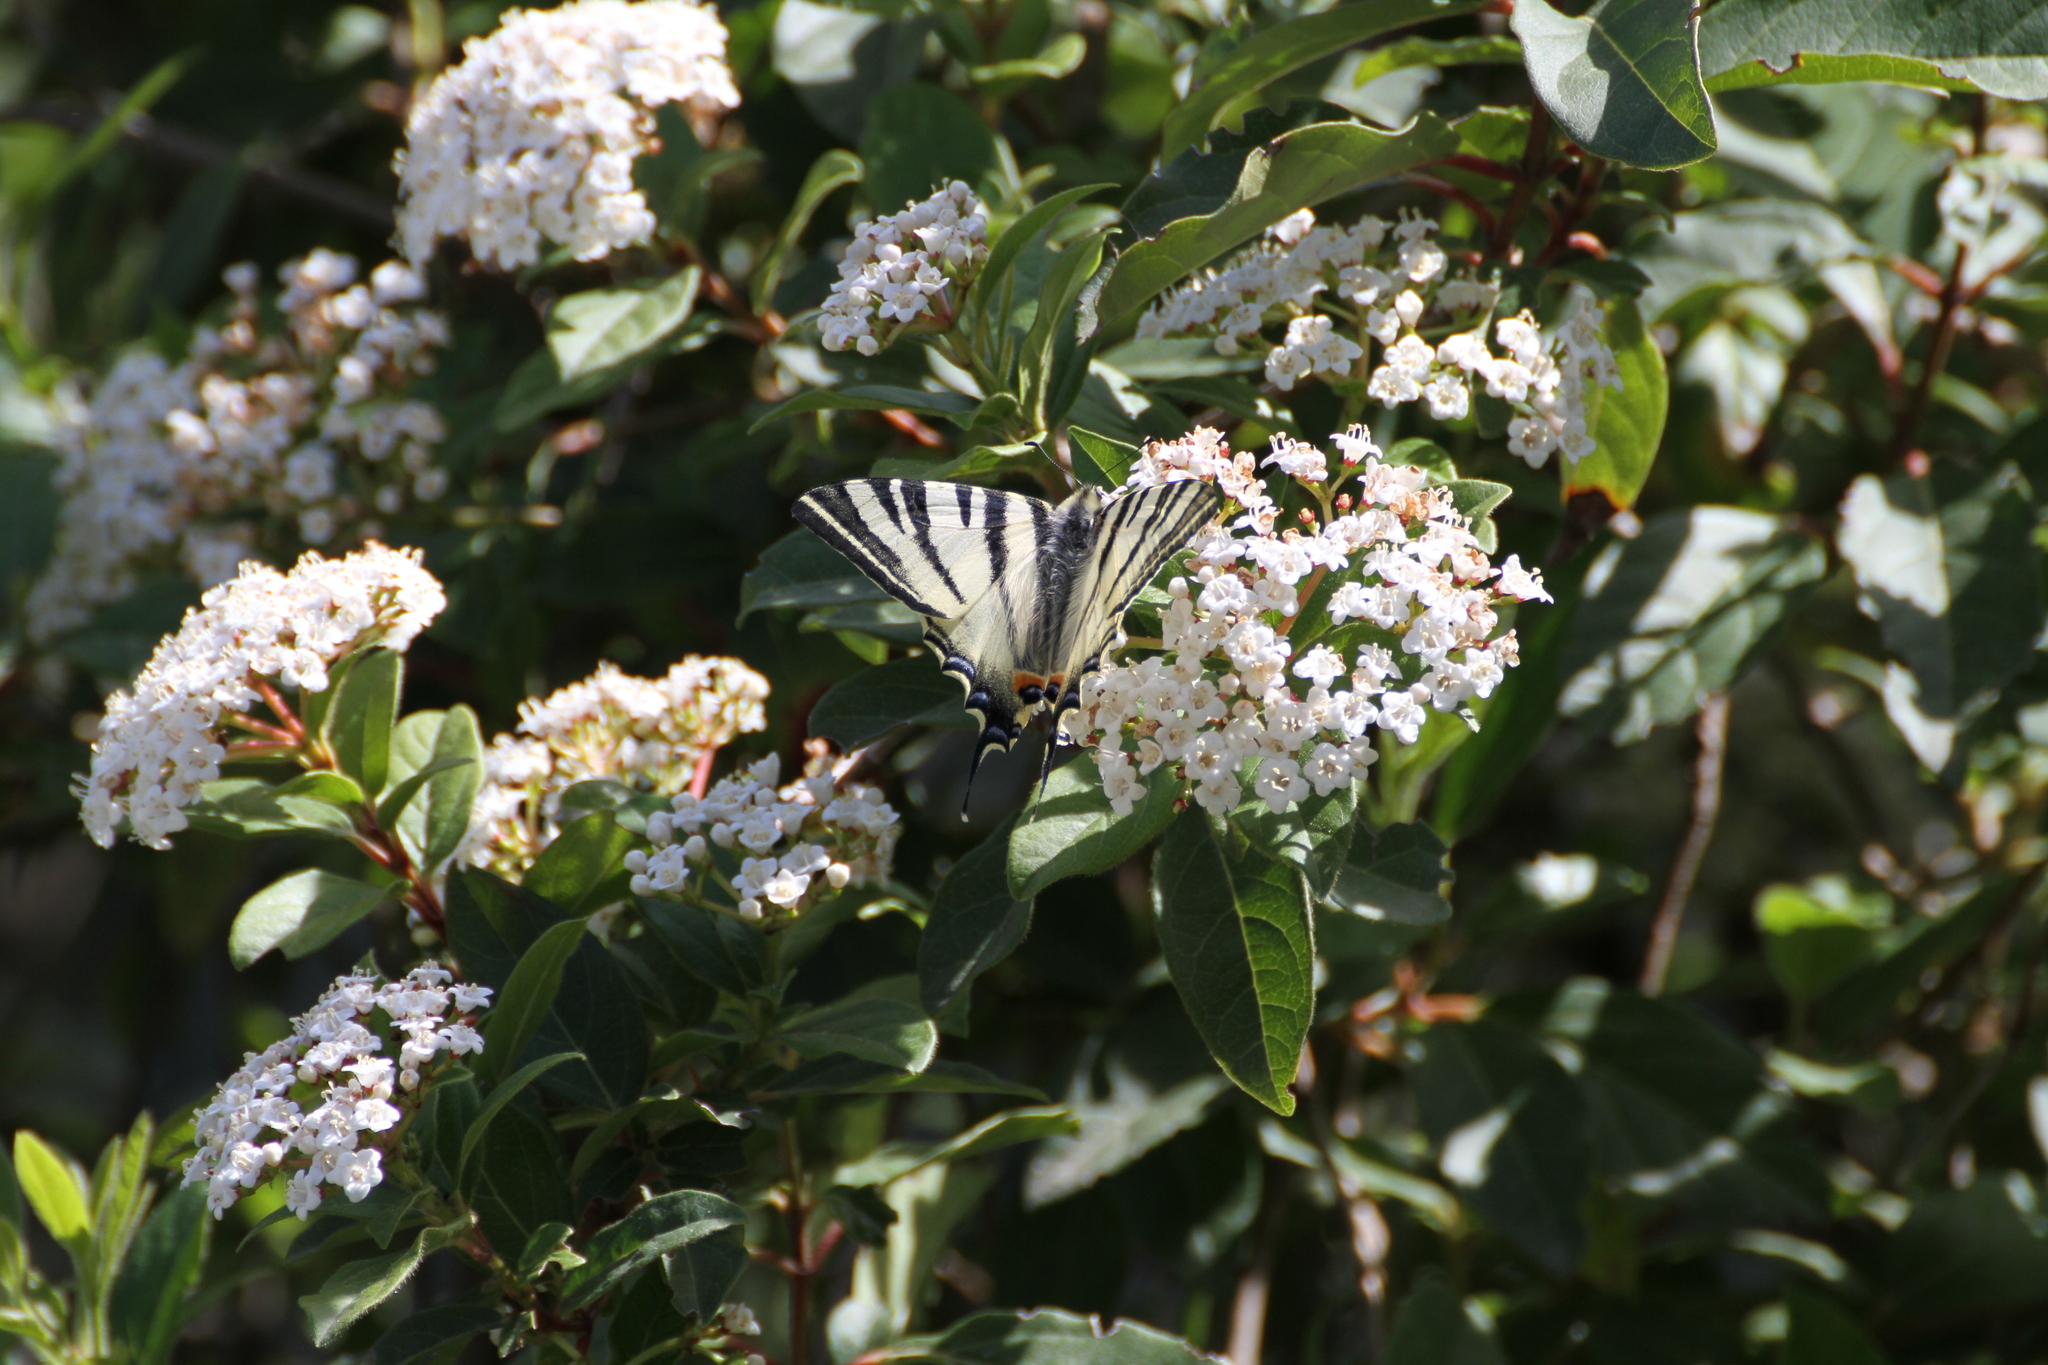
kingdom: Animalia
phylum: Arthropoda
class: Insecta
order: Lepidoptera
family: Papilionidae
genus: Iphiclides
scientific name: Iphiclides podalirius
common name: Scarce swallowtail
